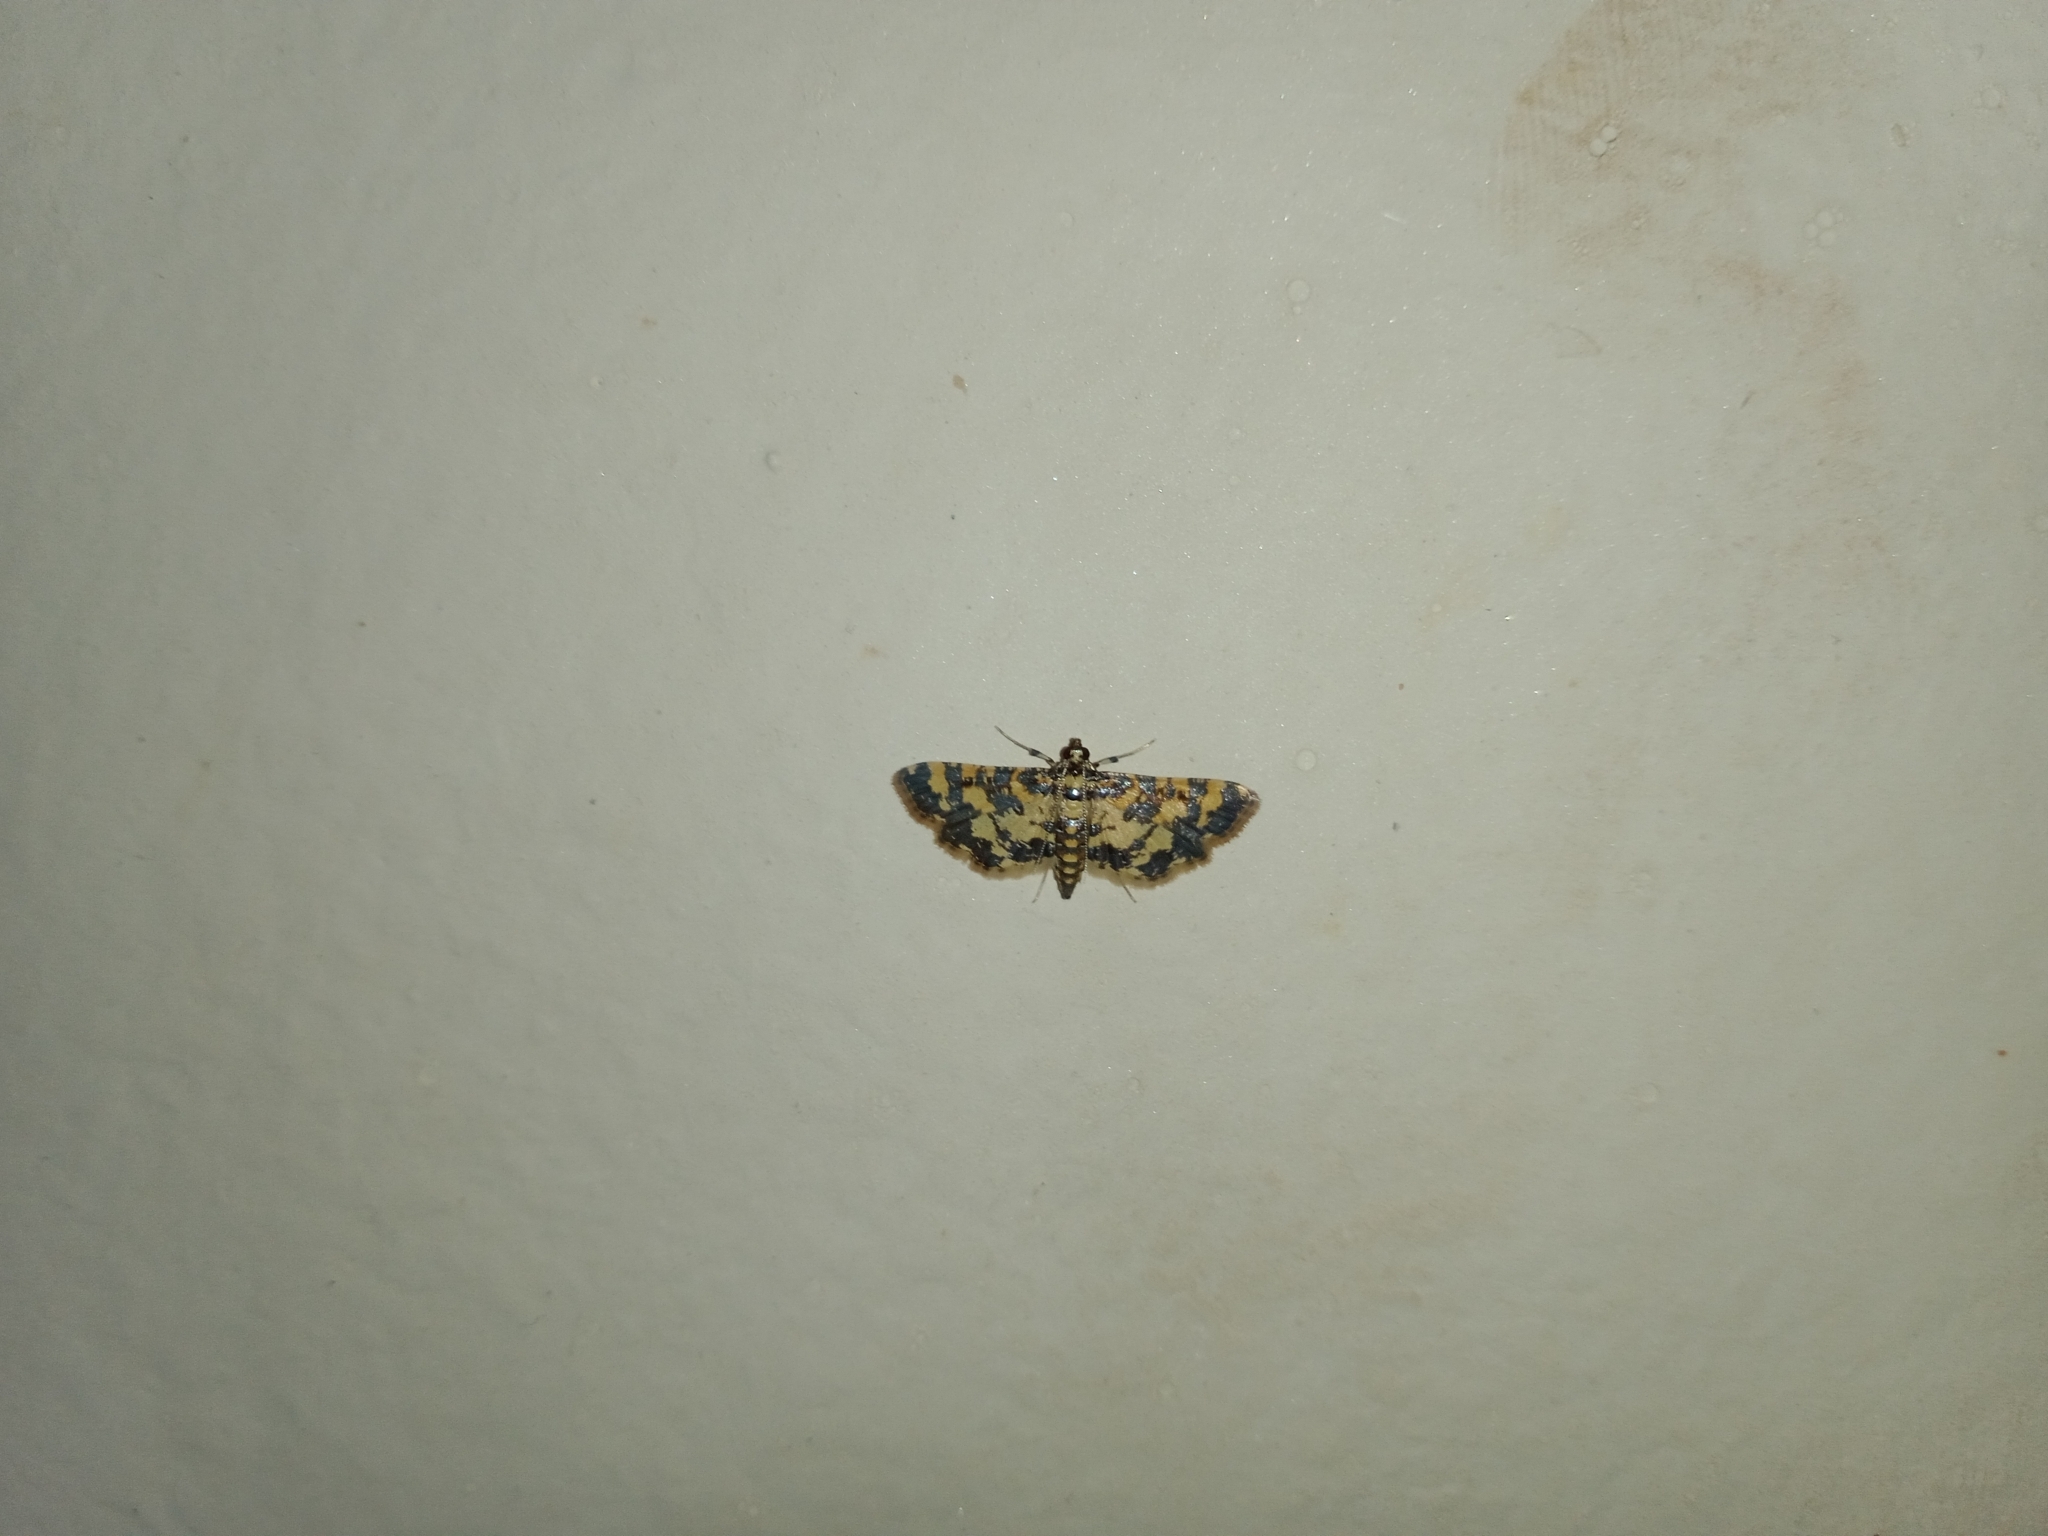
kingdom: Animalia
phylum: Arthropoda
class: Insecta
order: Lepidoptera
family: Crambidae
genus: Eurrhyparodes
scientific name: Eurrhyparodes bracteolalis
